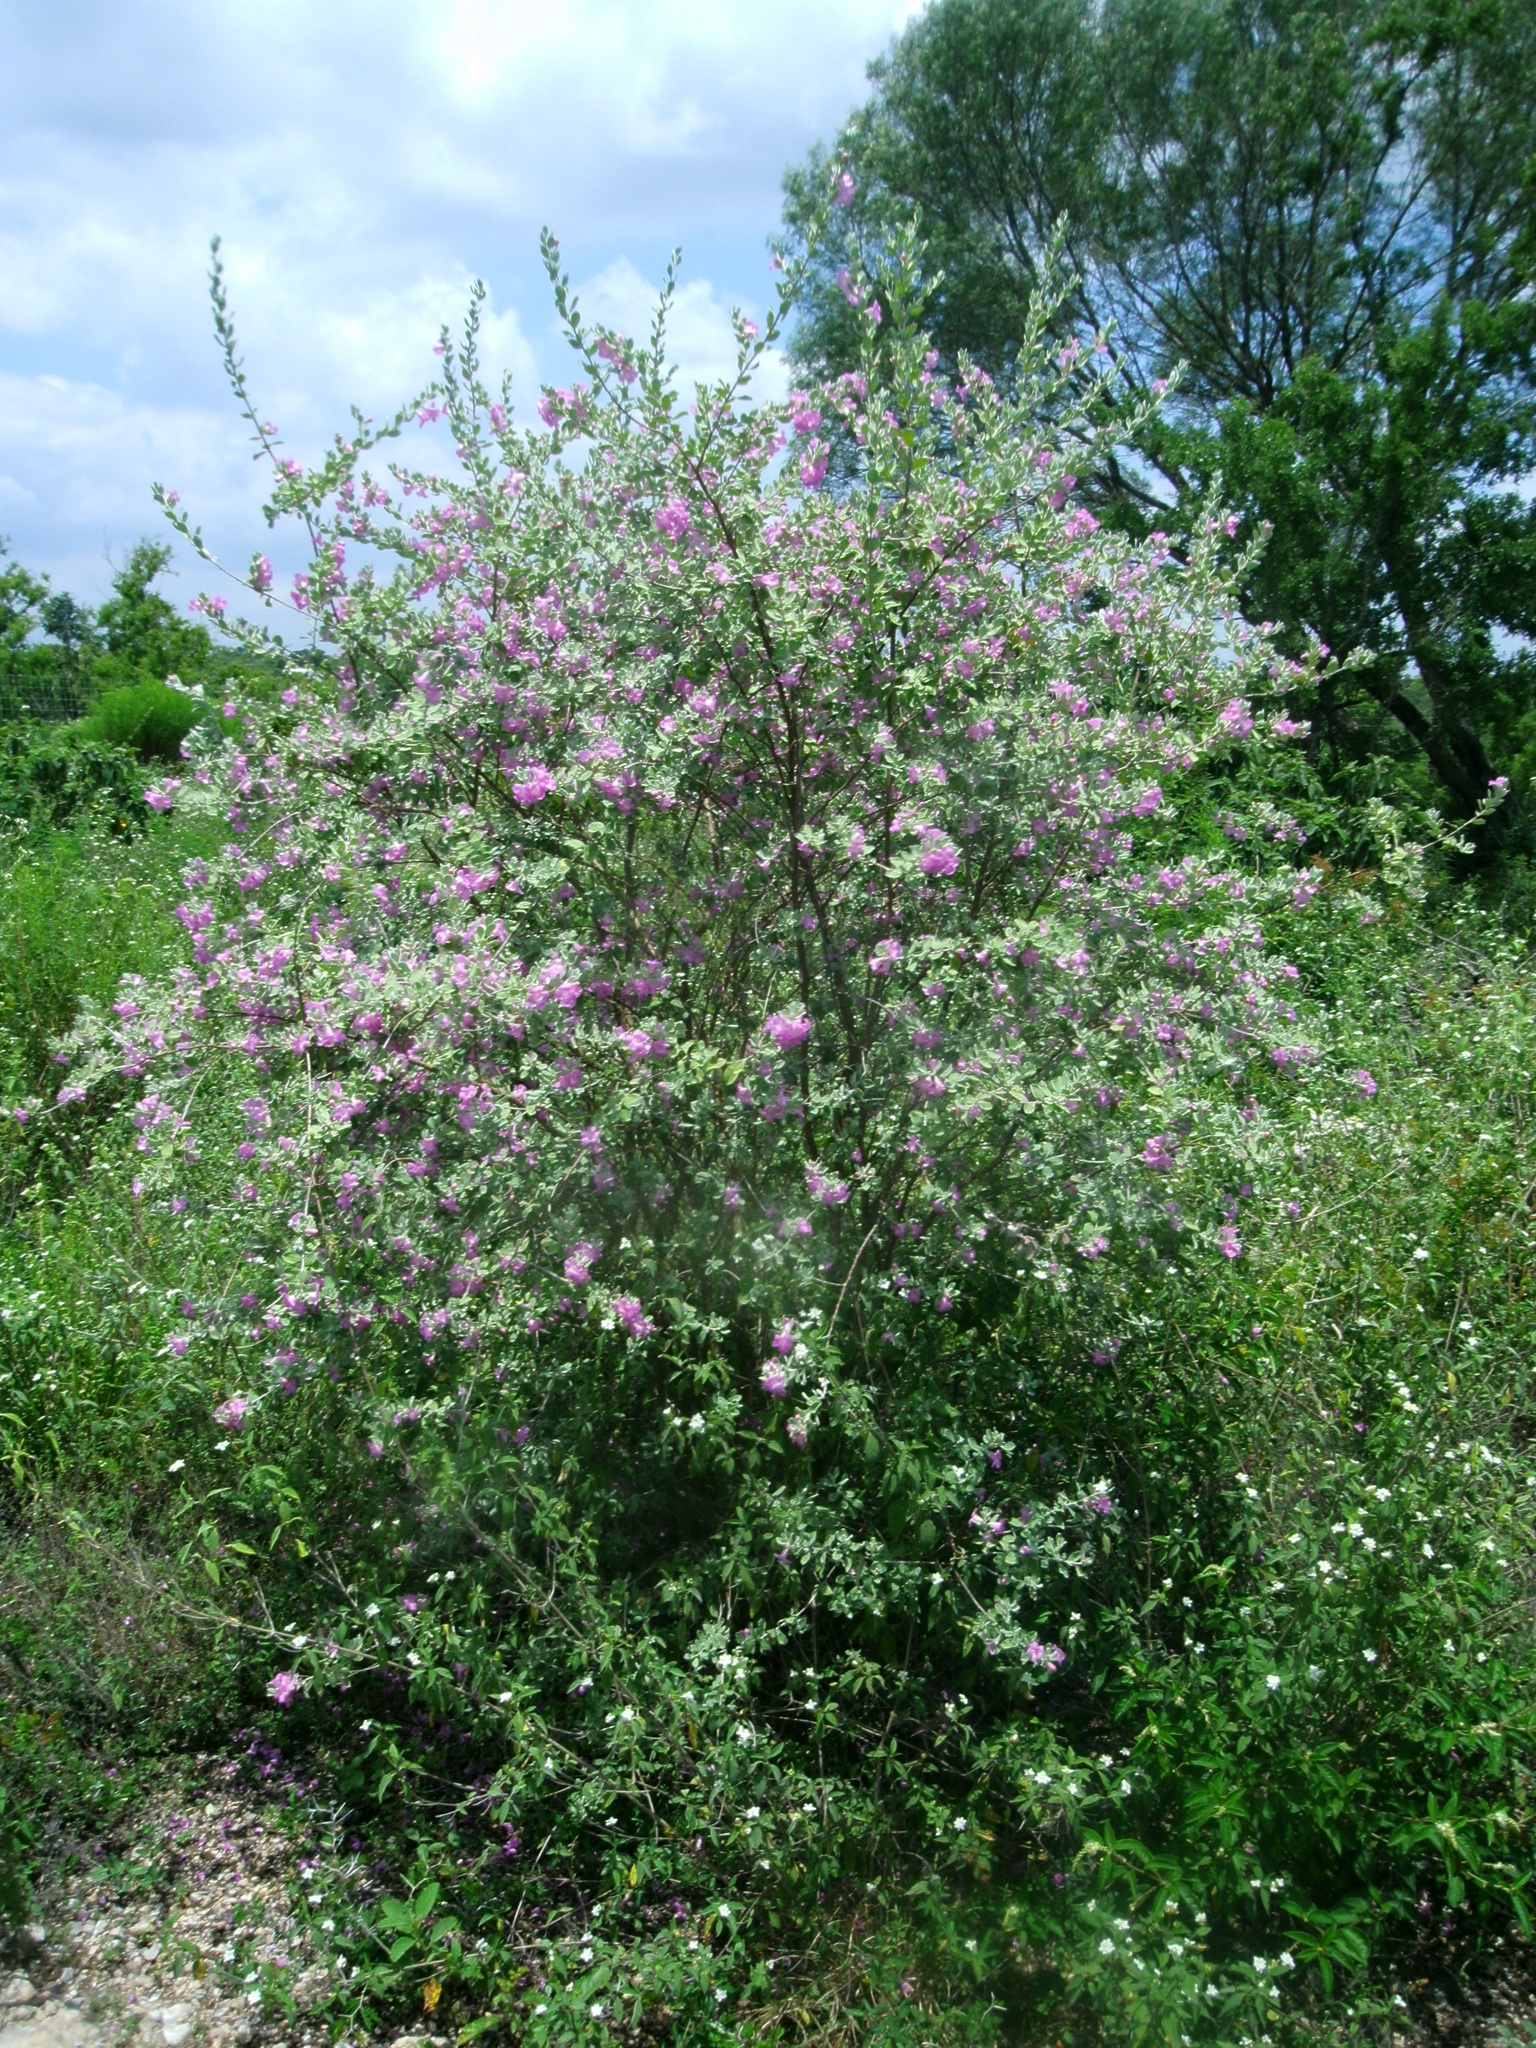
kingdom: Plantae
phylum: Tracheophyta
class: Magnoliopsida
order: Lamiales
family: Scrophulariaceae
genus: Leucophyllum
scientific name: Leucophyllum frutescens
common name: Texas silverleaf
